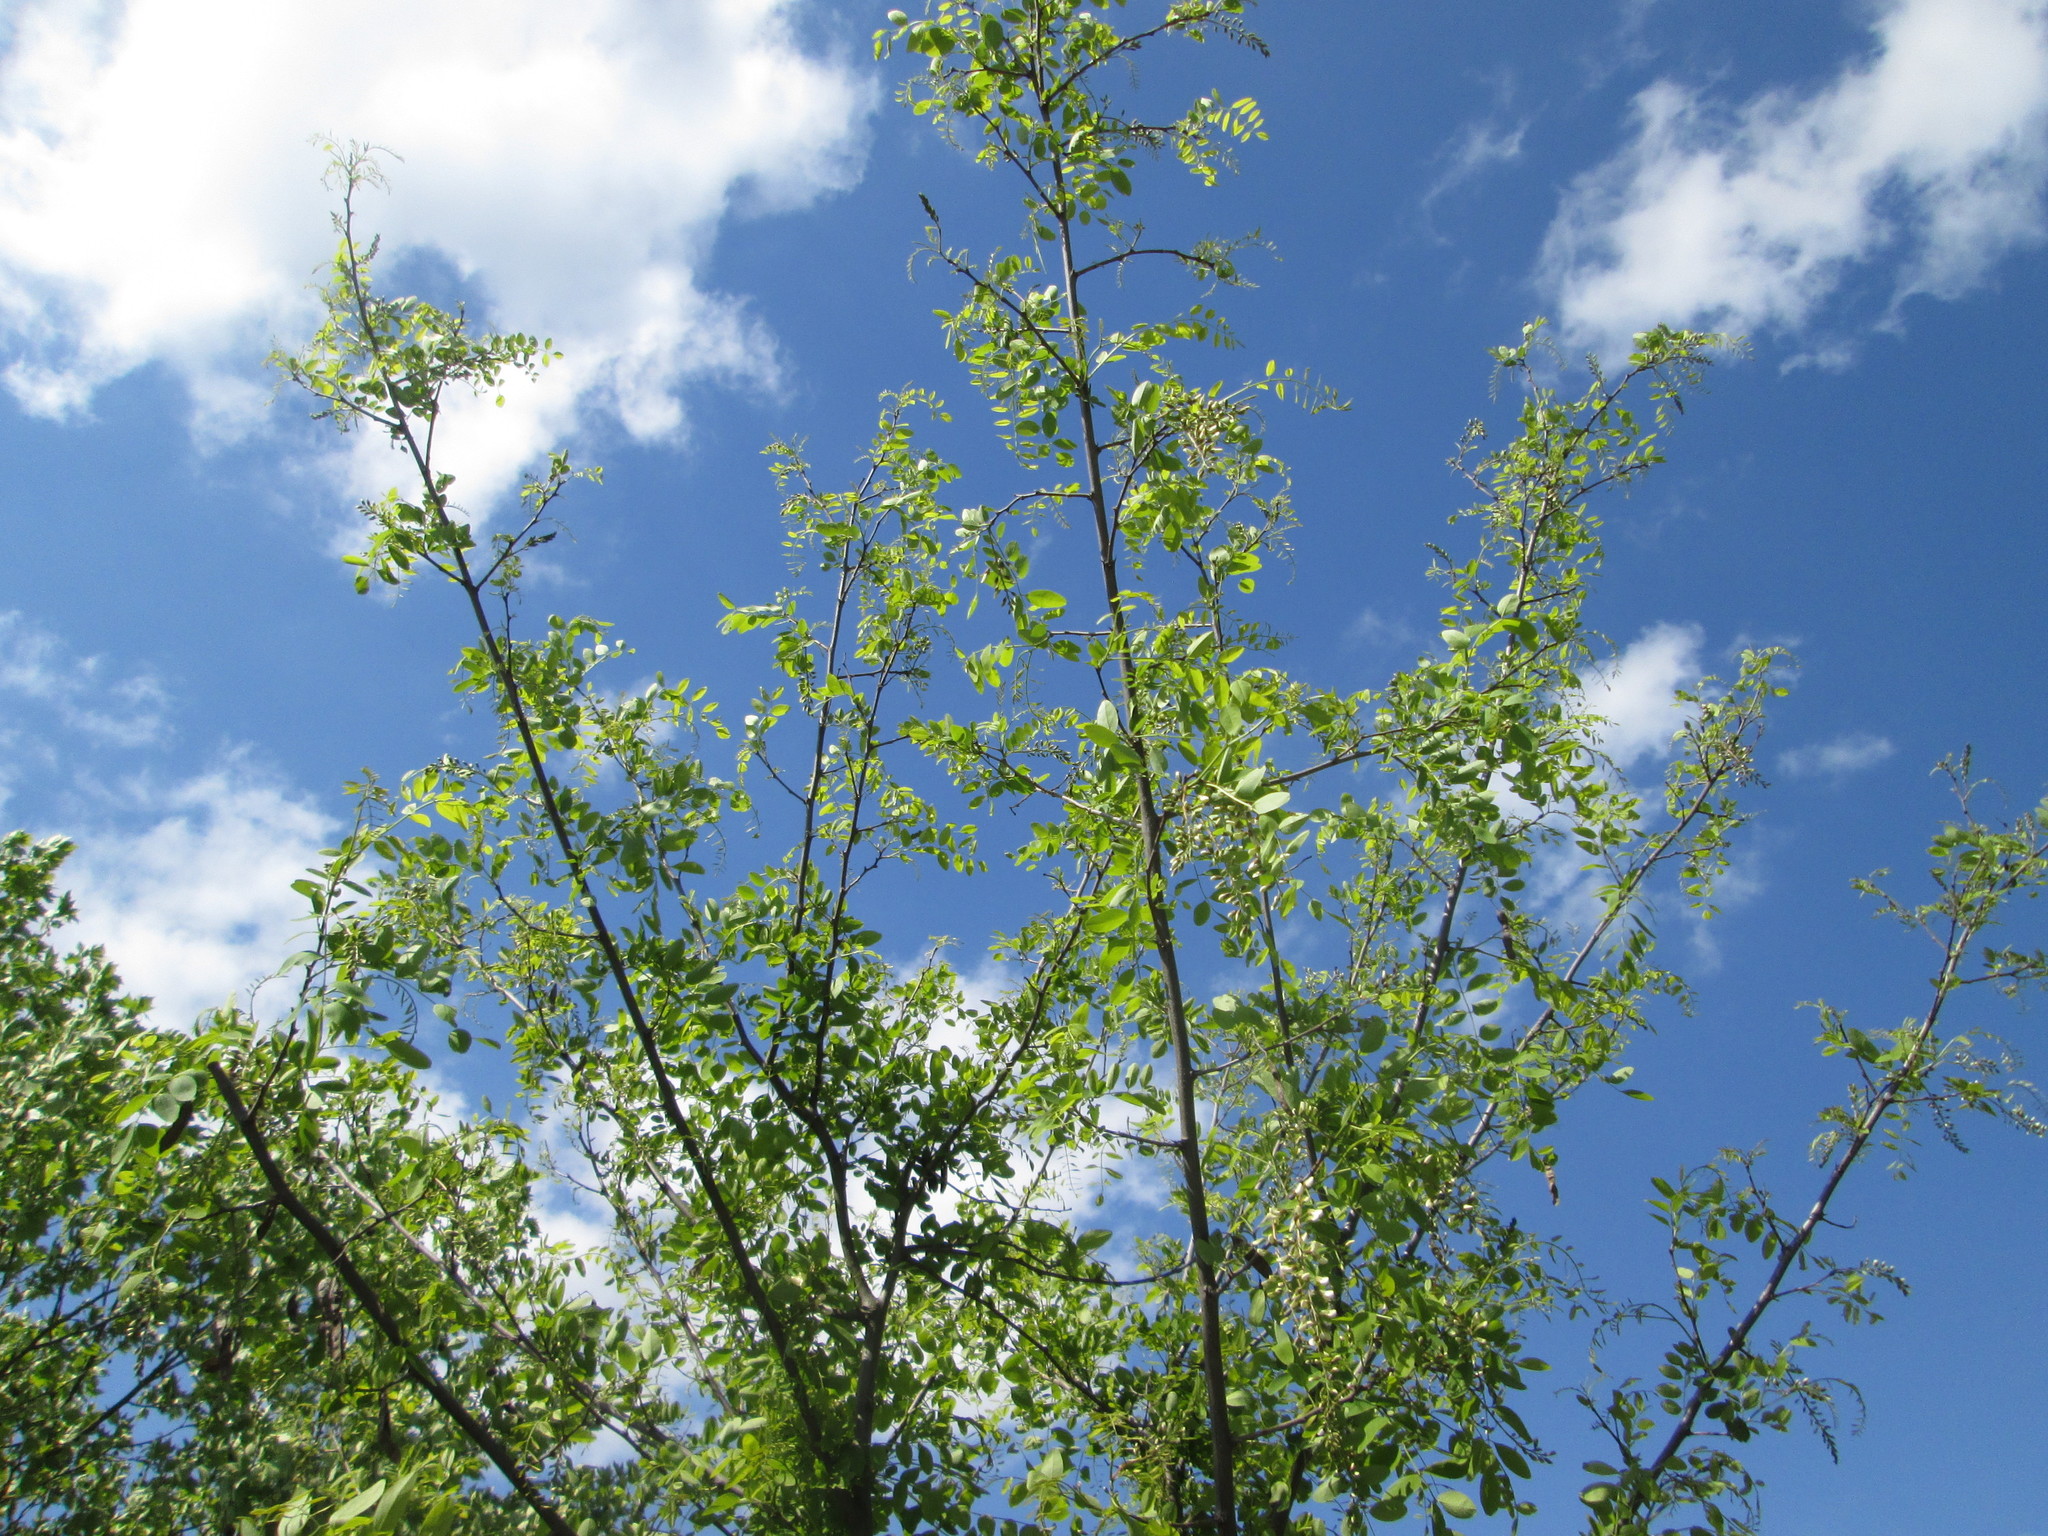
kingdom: Plantae
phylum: Tracheophyta
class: Magnoliopsida
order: Fabales
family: Fabaceae
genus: Robinia
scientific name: Robinia pseudoacacia
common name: Black locust
